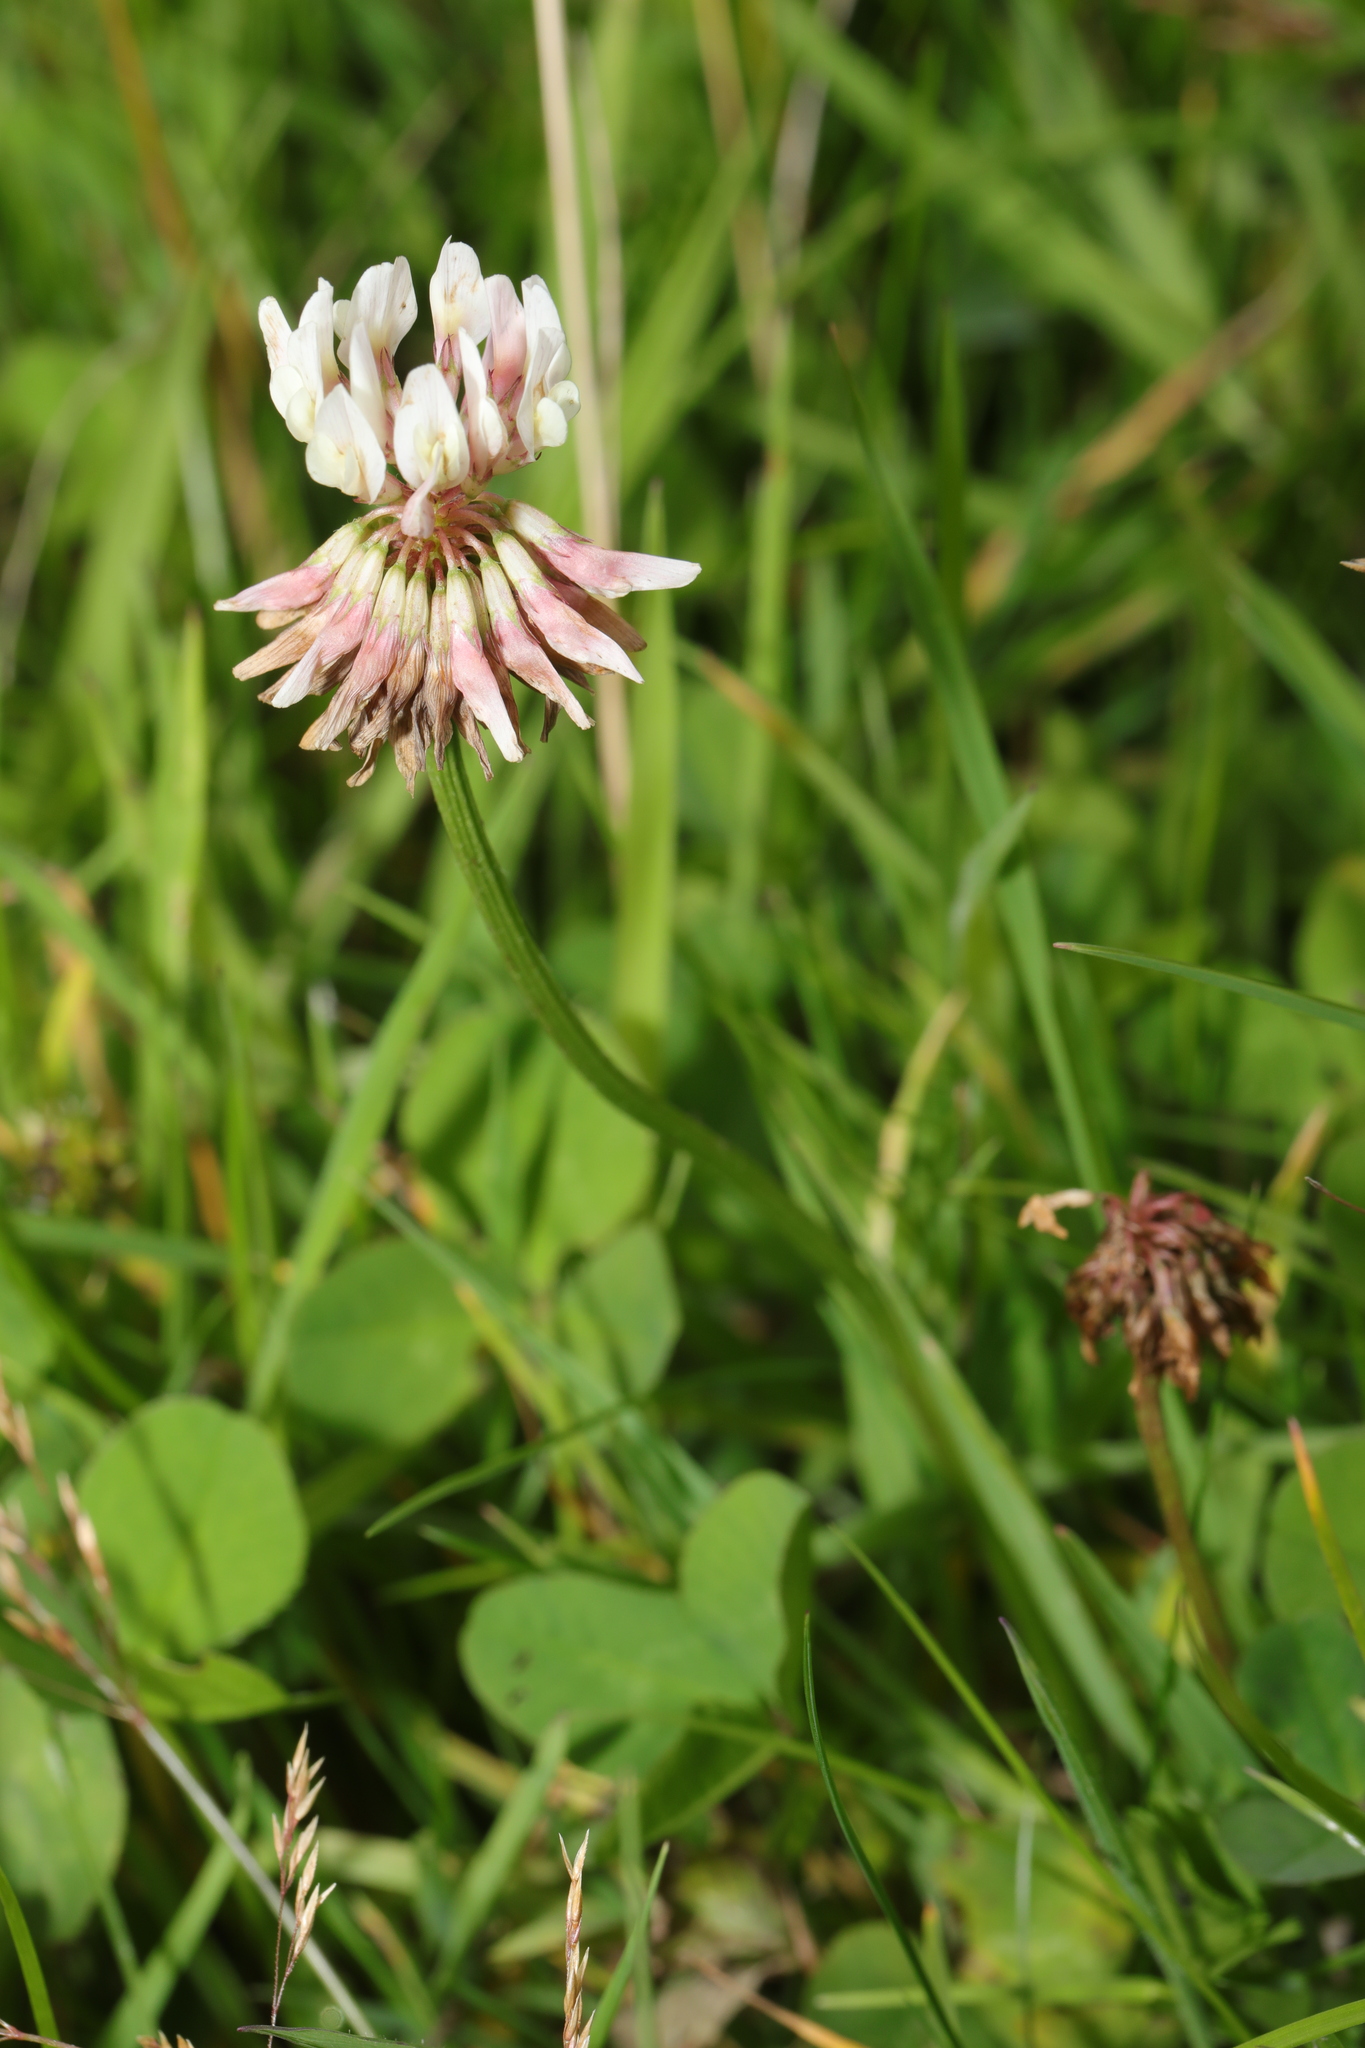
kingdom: Plantae
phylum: Tracheophyta
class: Magnoliopsida
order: Fabales
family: Fabaceae
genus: Trifolium
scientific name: Trifolium repens
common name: White clover
